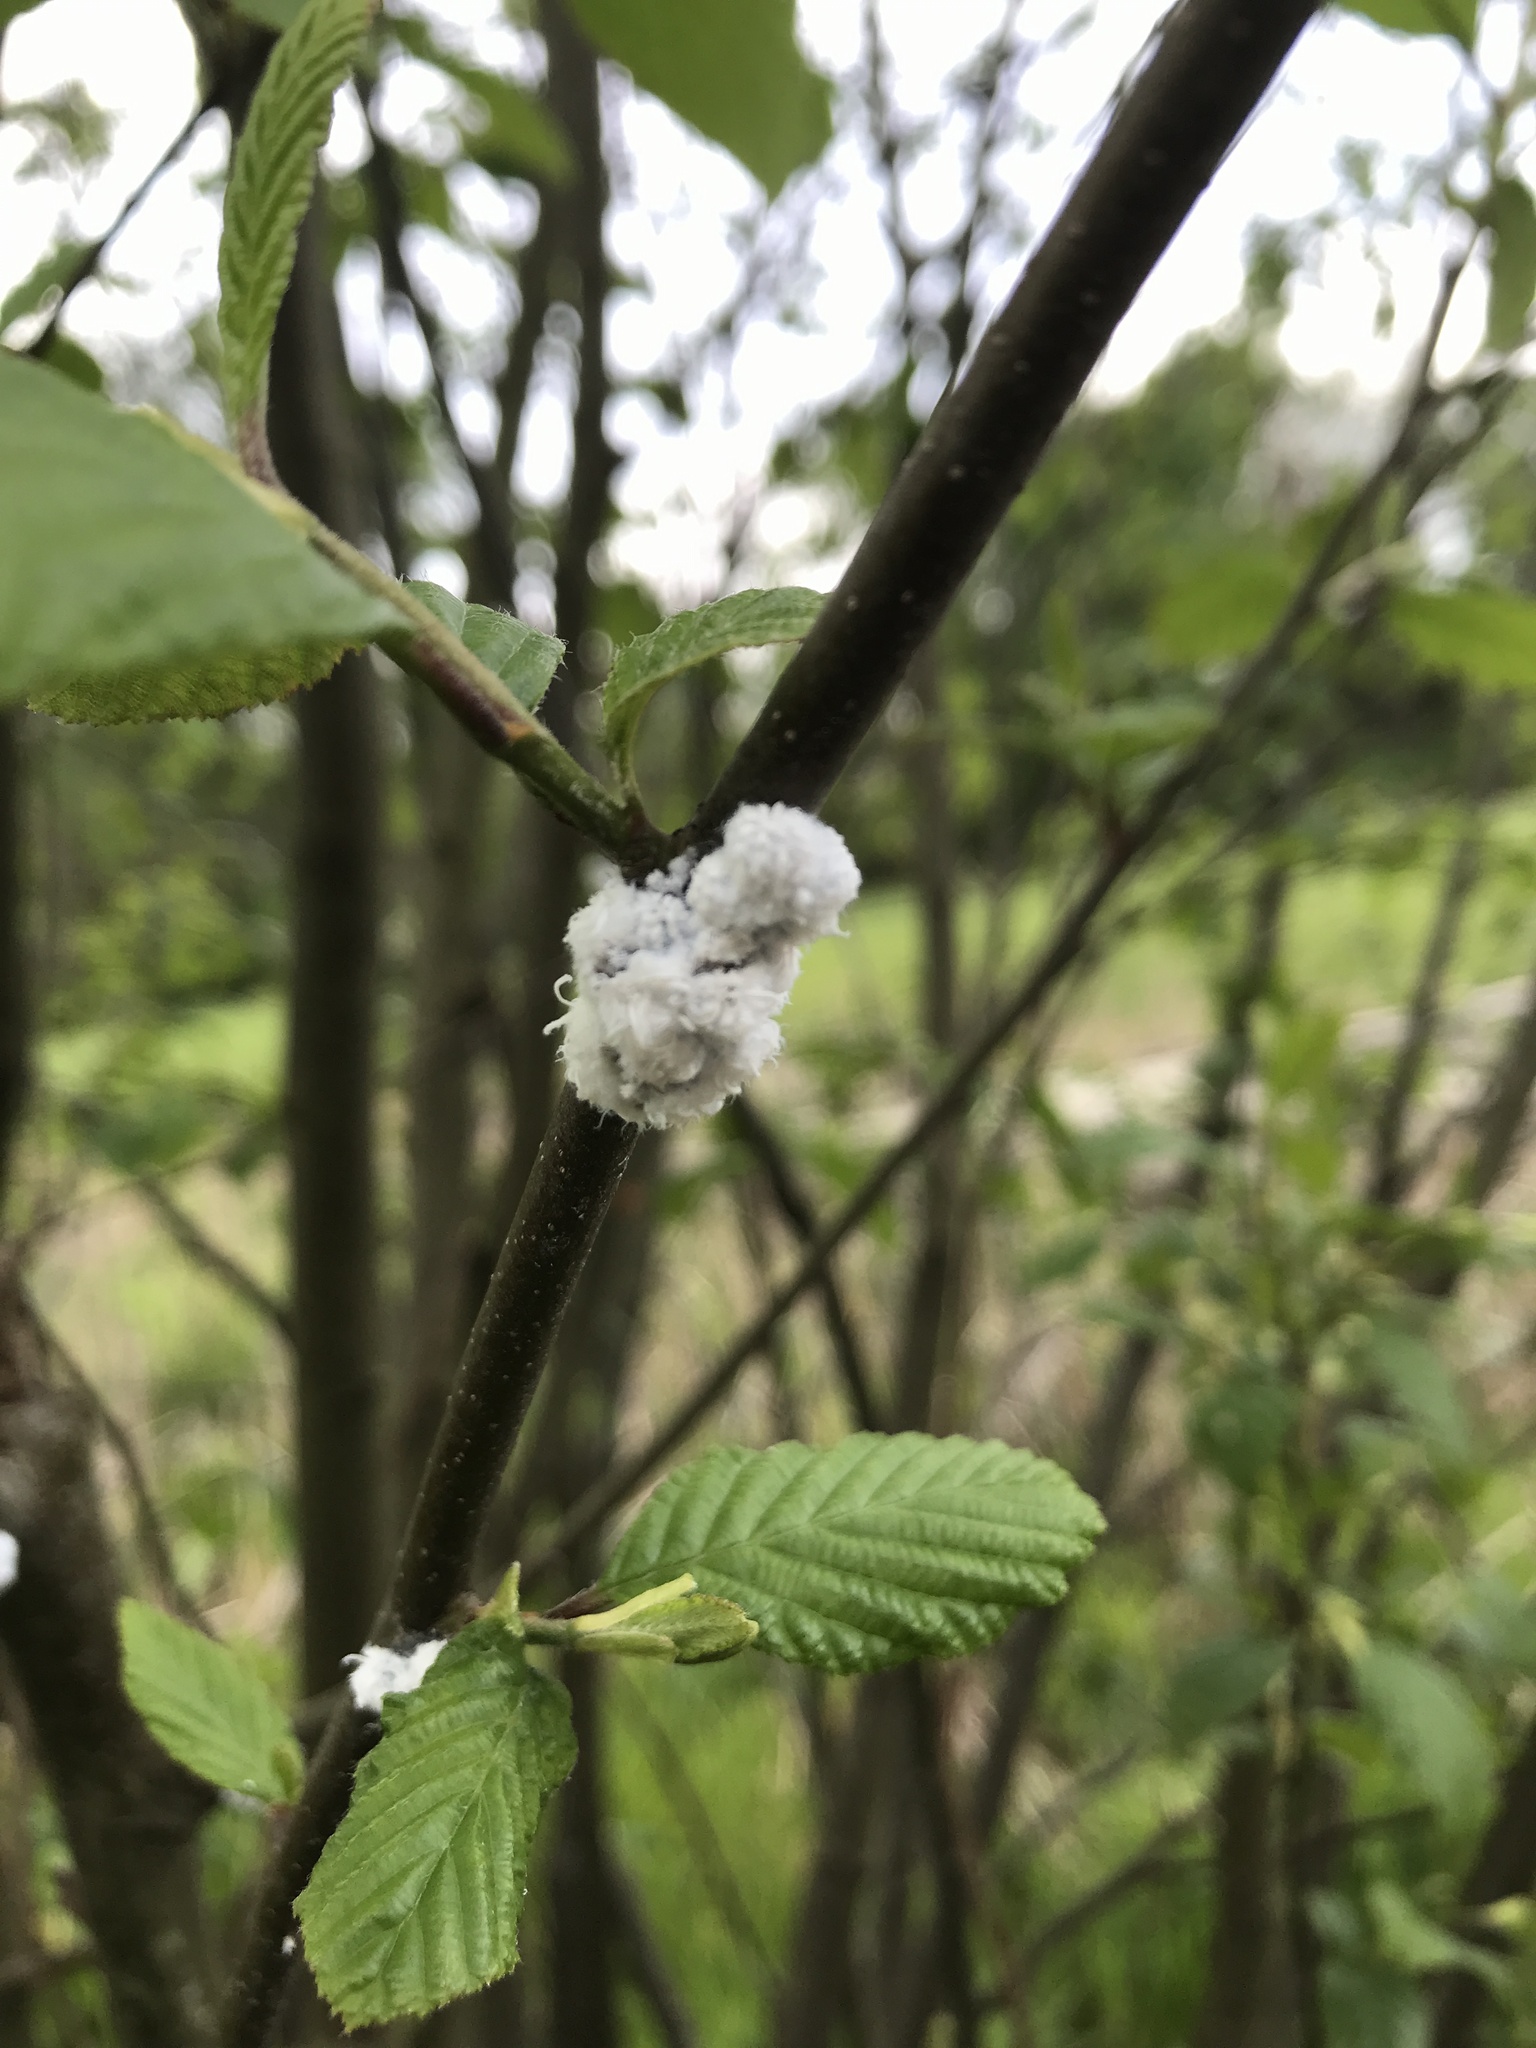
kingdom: Animalia
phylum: Arthropoda
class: Insecta
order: Hemiptera
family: Aphididae
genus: Prociphilus
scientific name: Prociphilus tessellatus
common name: Woolly alder aphid
